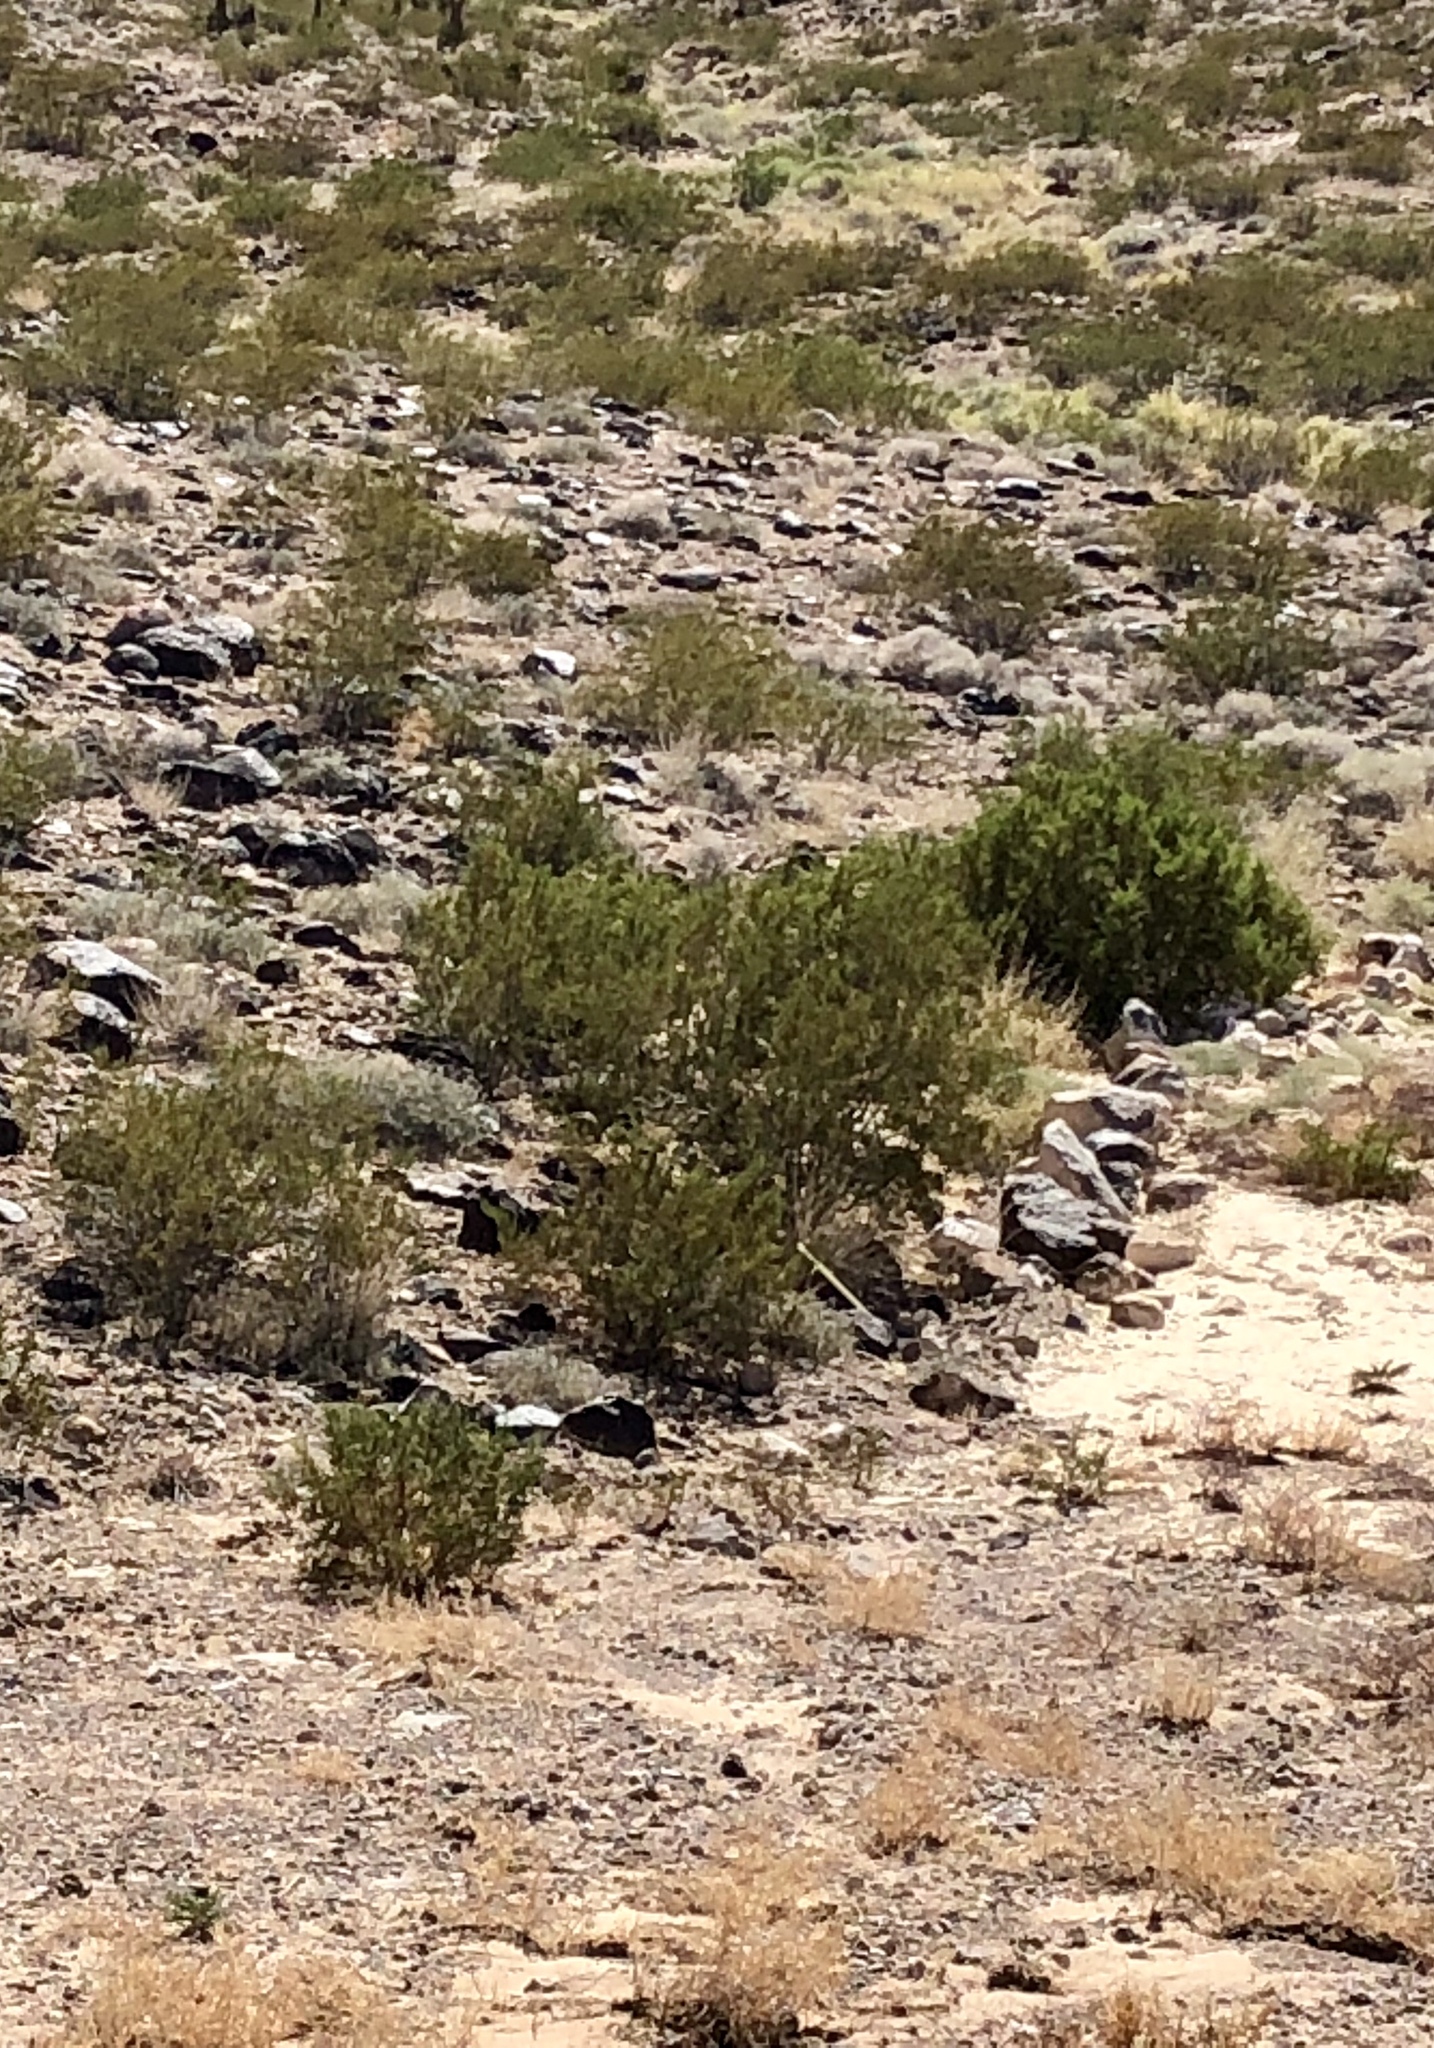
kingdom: Plantae
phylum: Tracheophyta
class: Magnoliopsida
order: Zygophyllales
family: Zygophyllaceae
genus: Larrea
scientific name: Larrea tridentata
